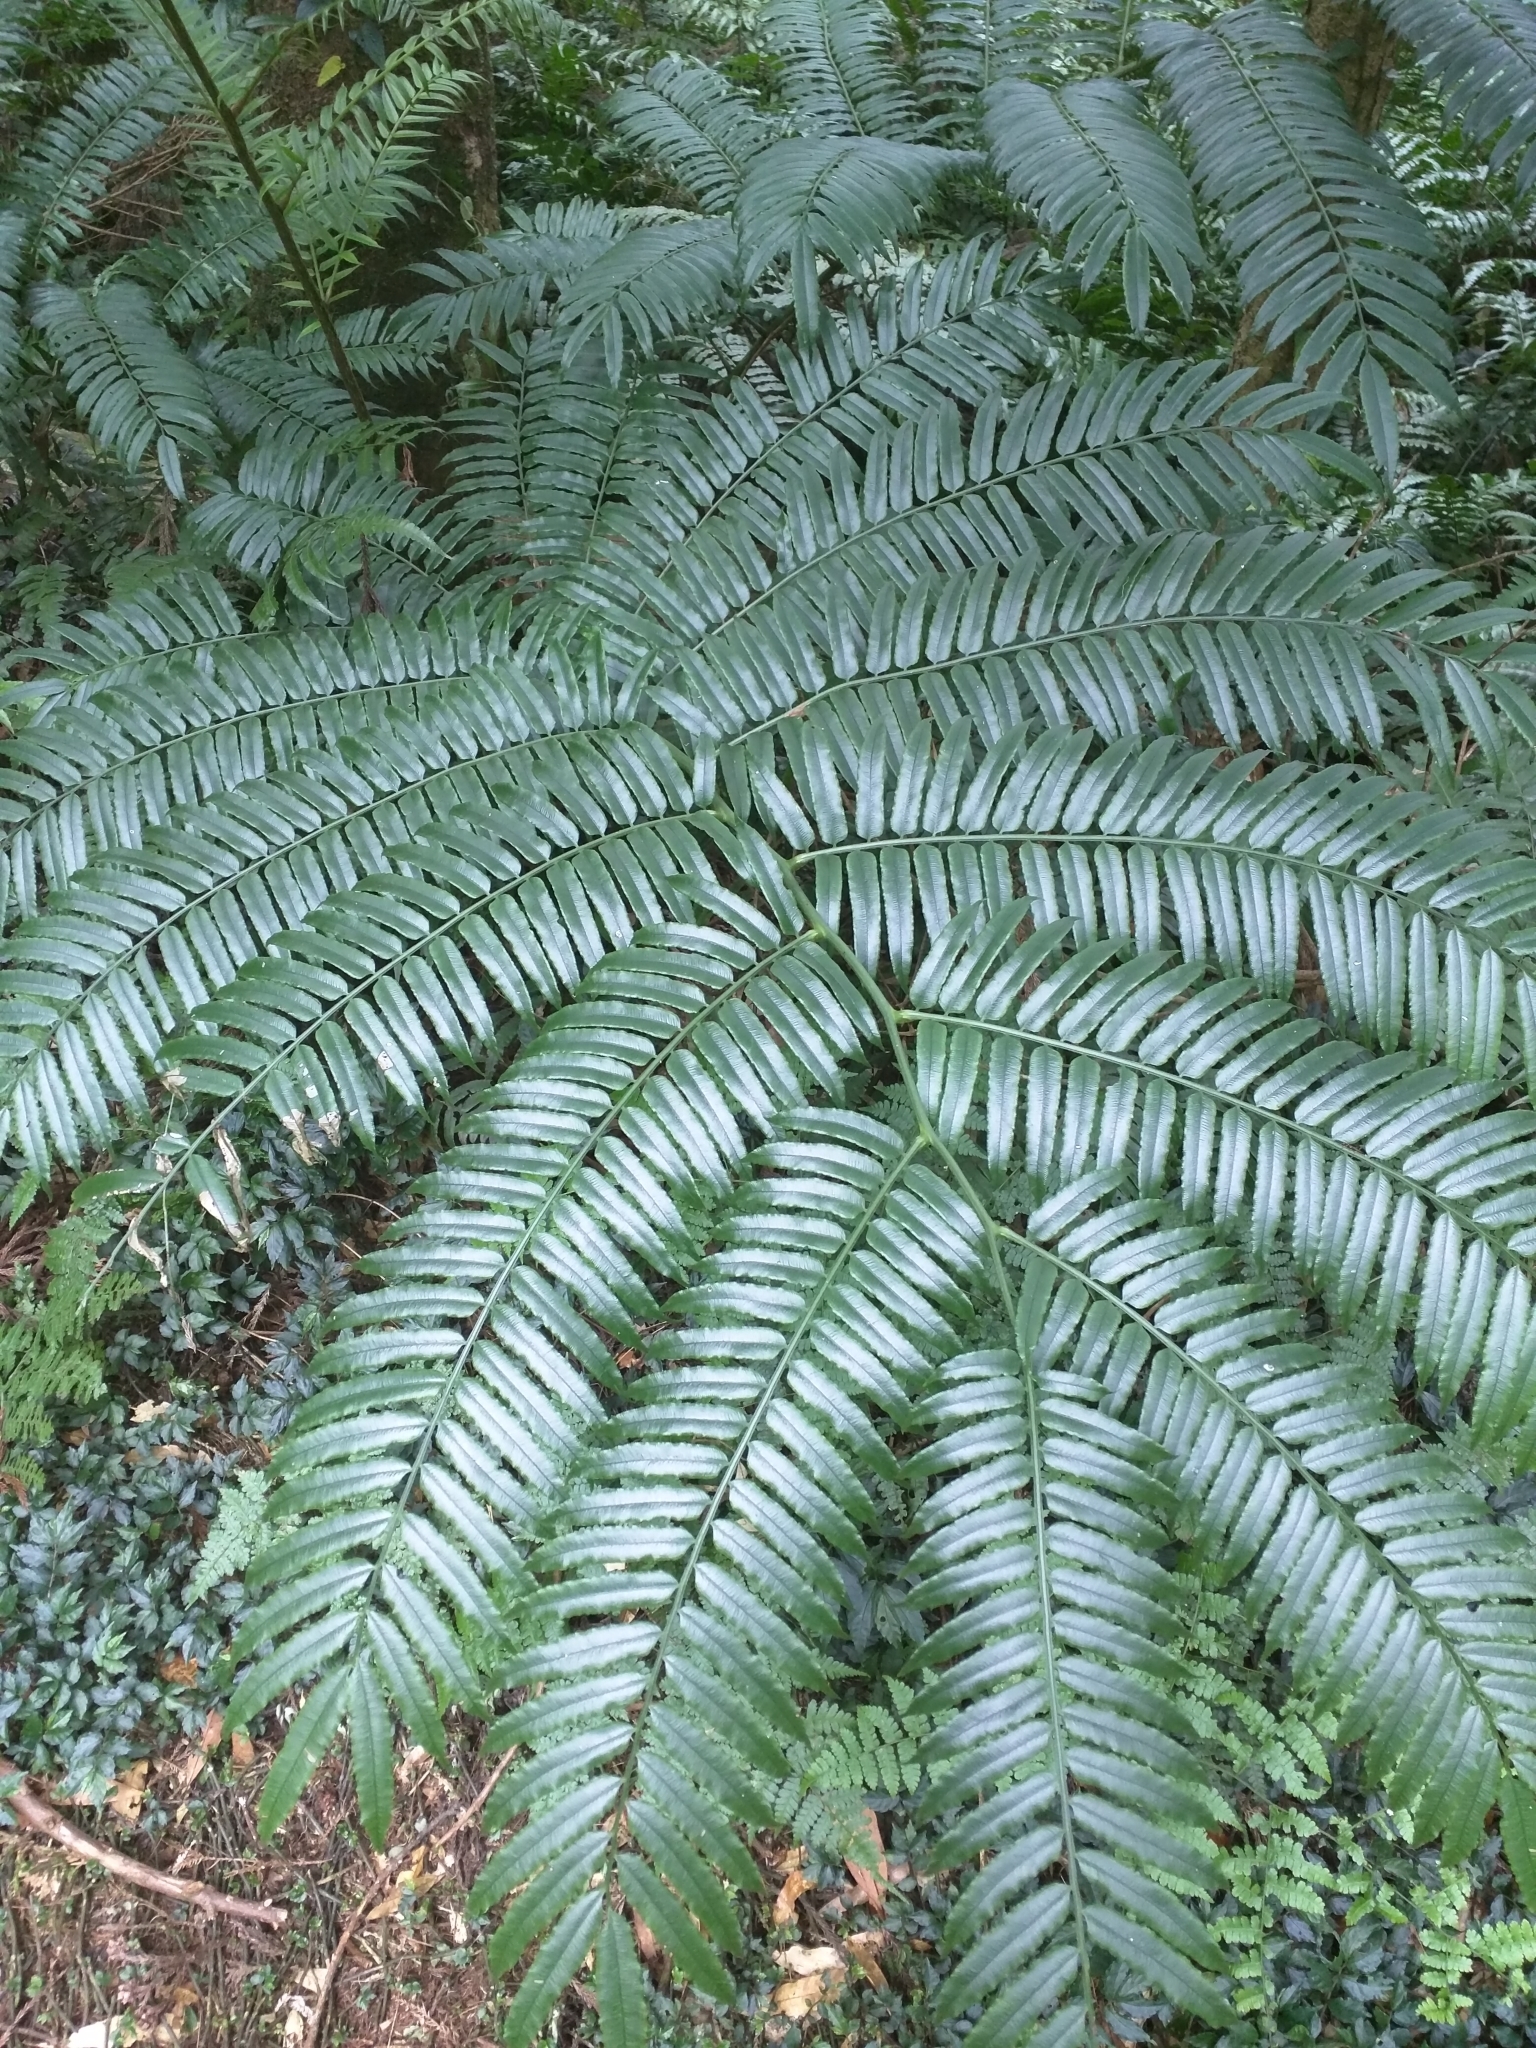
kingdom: Plantae
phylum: Tracheophyta
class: Polypodiopsida
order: Marattiales
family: Marattiaceae
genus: Angiopteris
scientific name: Angiopteris lygodiifolia
